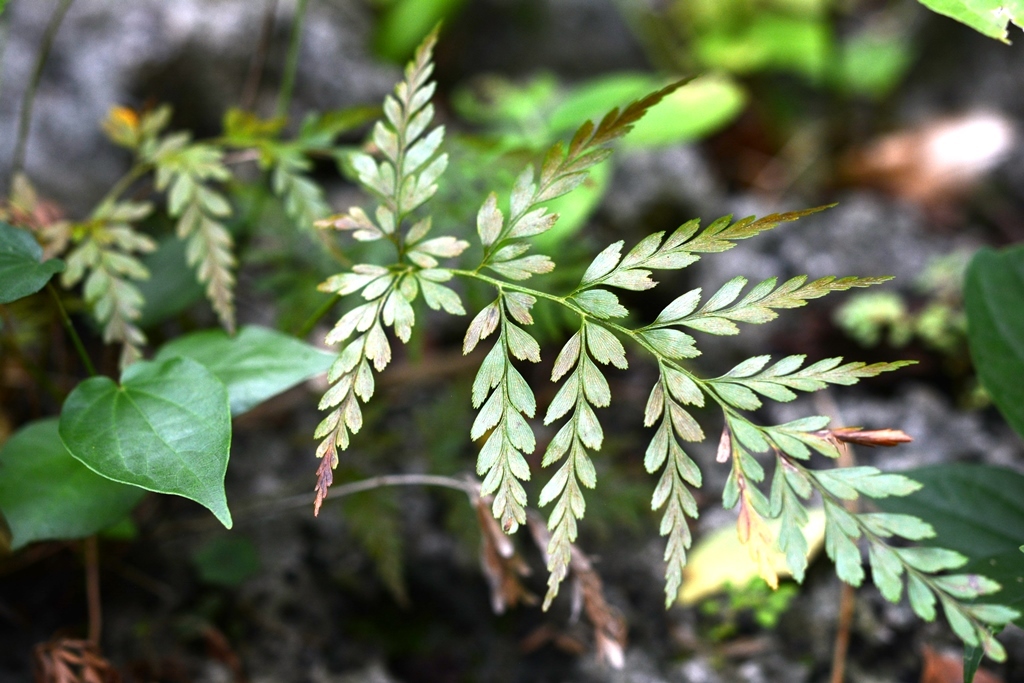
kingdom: Plantae
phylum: Tracheophyta
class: Polypodiopsida
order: Schizaeales
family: Anemiaceae
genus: Anemia
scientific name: Anemia adiantifolia
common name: Pine fern
